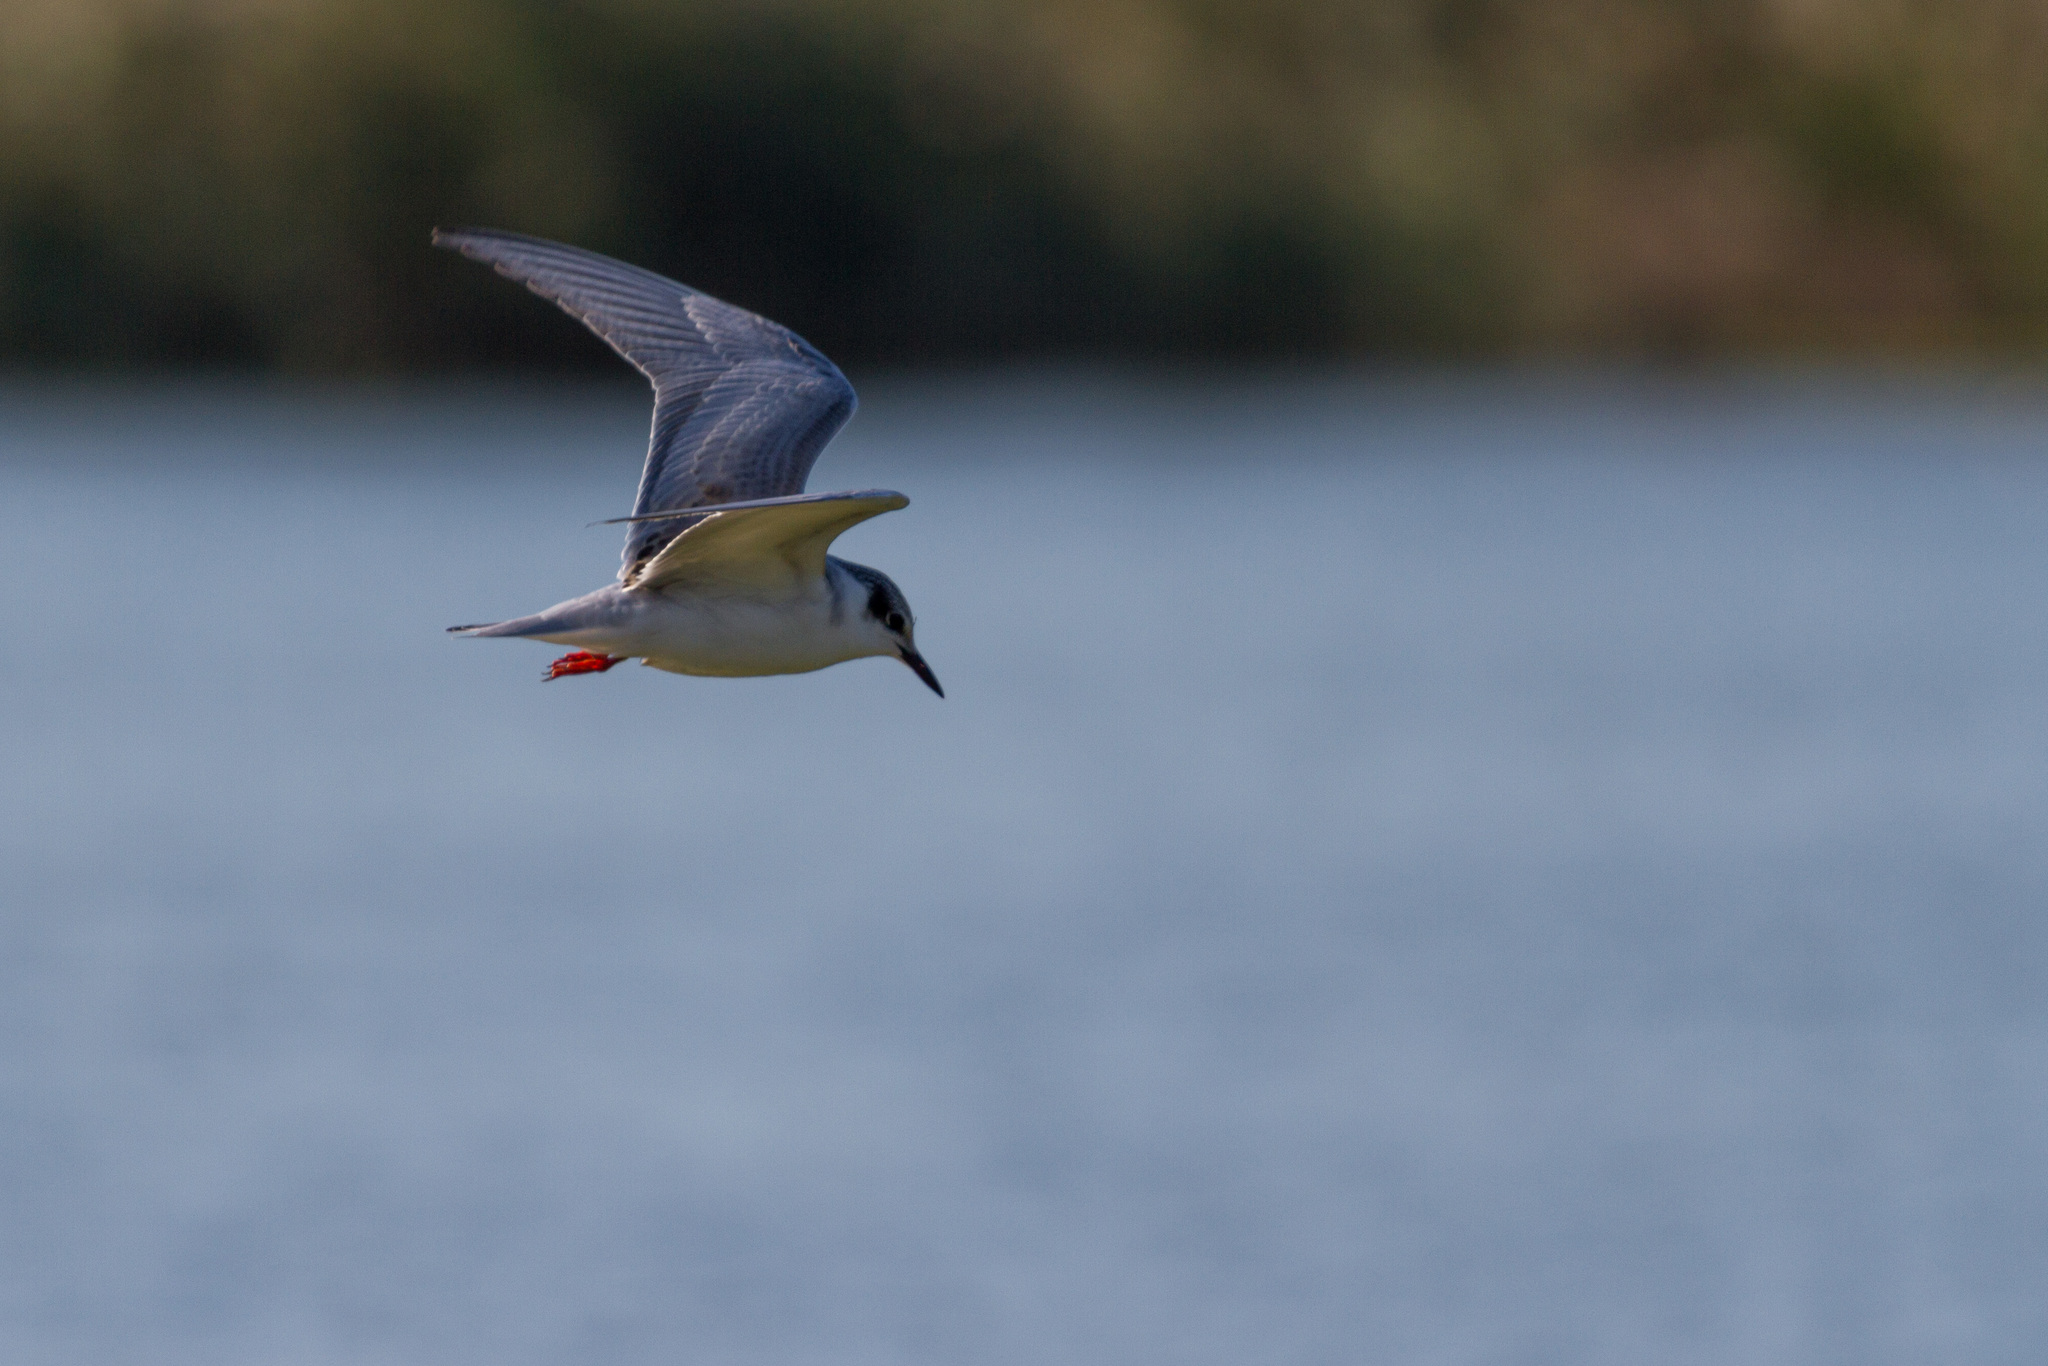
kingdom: Animalia
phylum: Chordata
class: Aves
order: Charadriiformes
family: Laridae
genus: Chlidonias
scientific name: Chlidonias hybrida
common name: Whiskered tern
